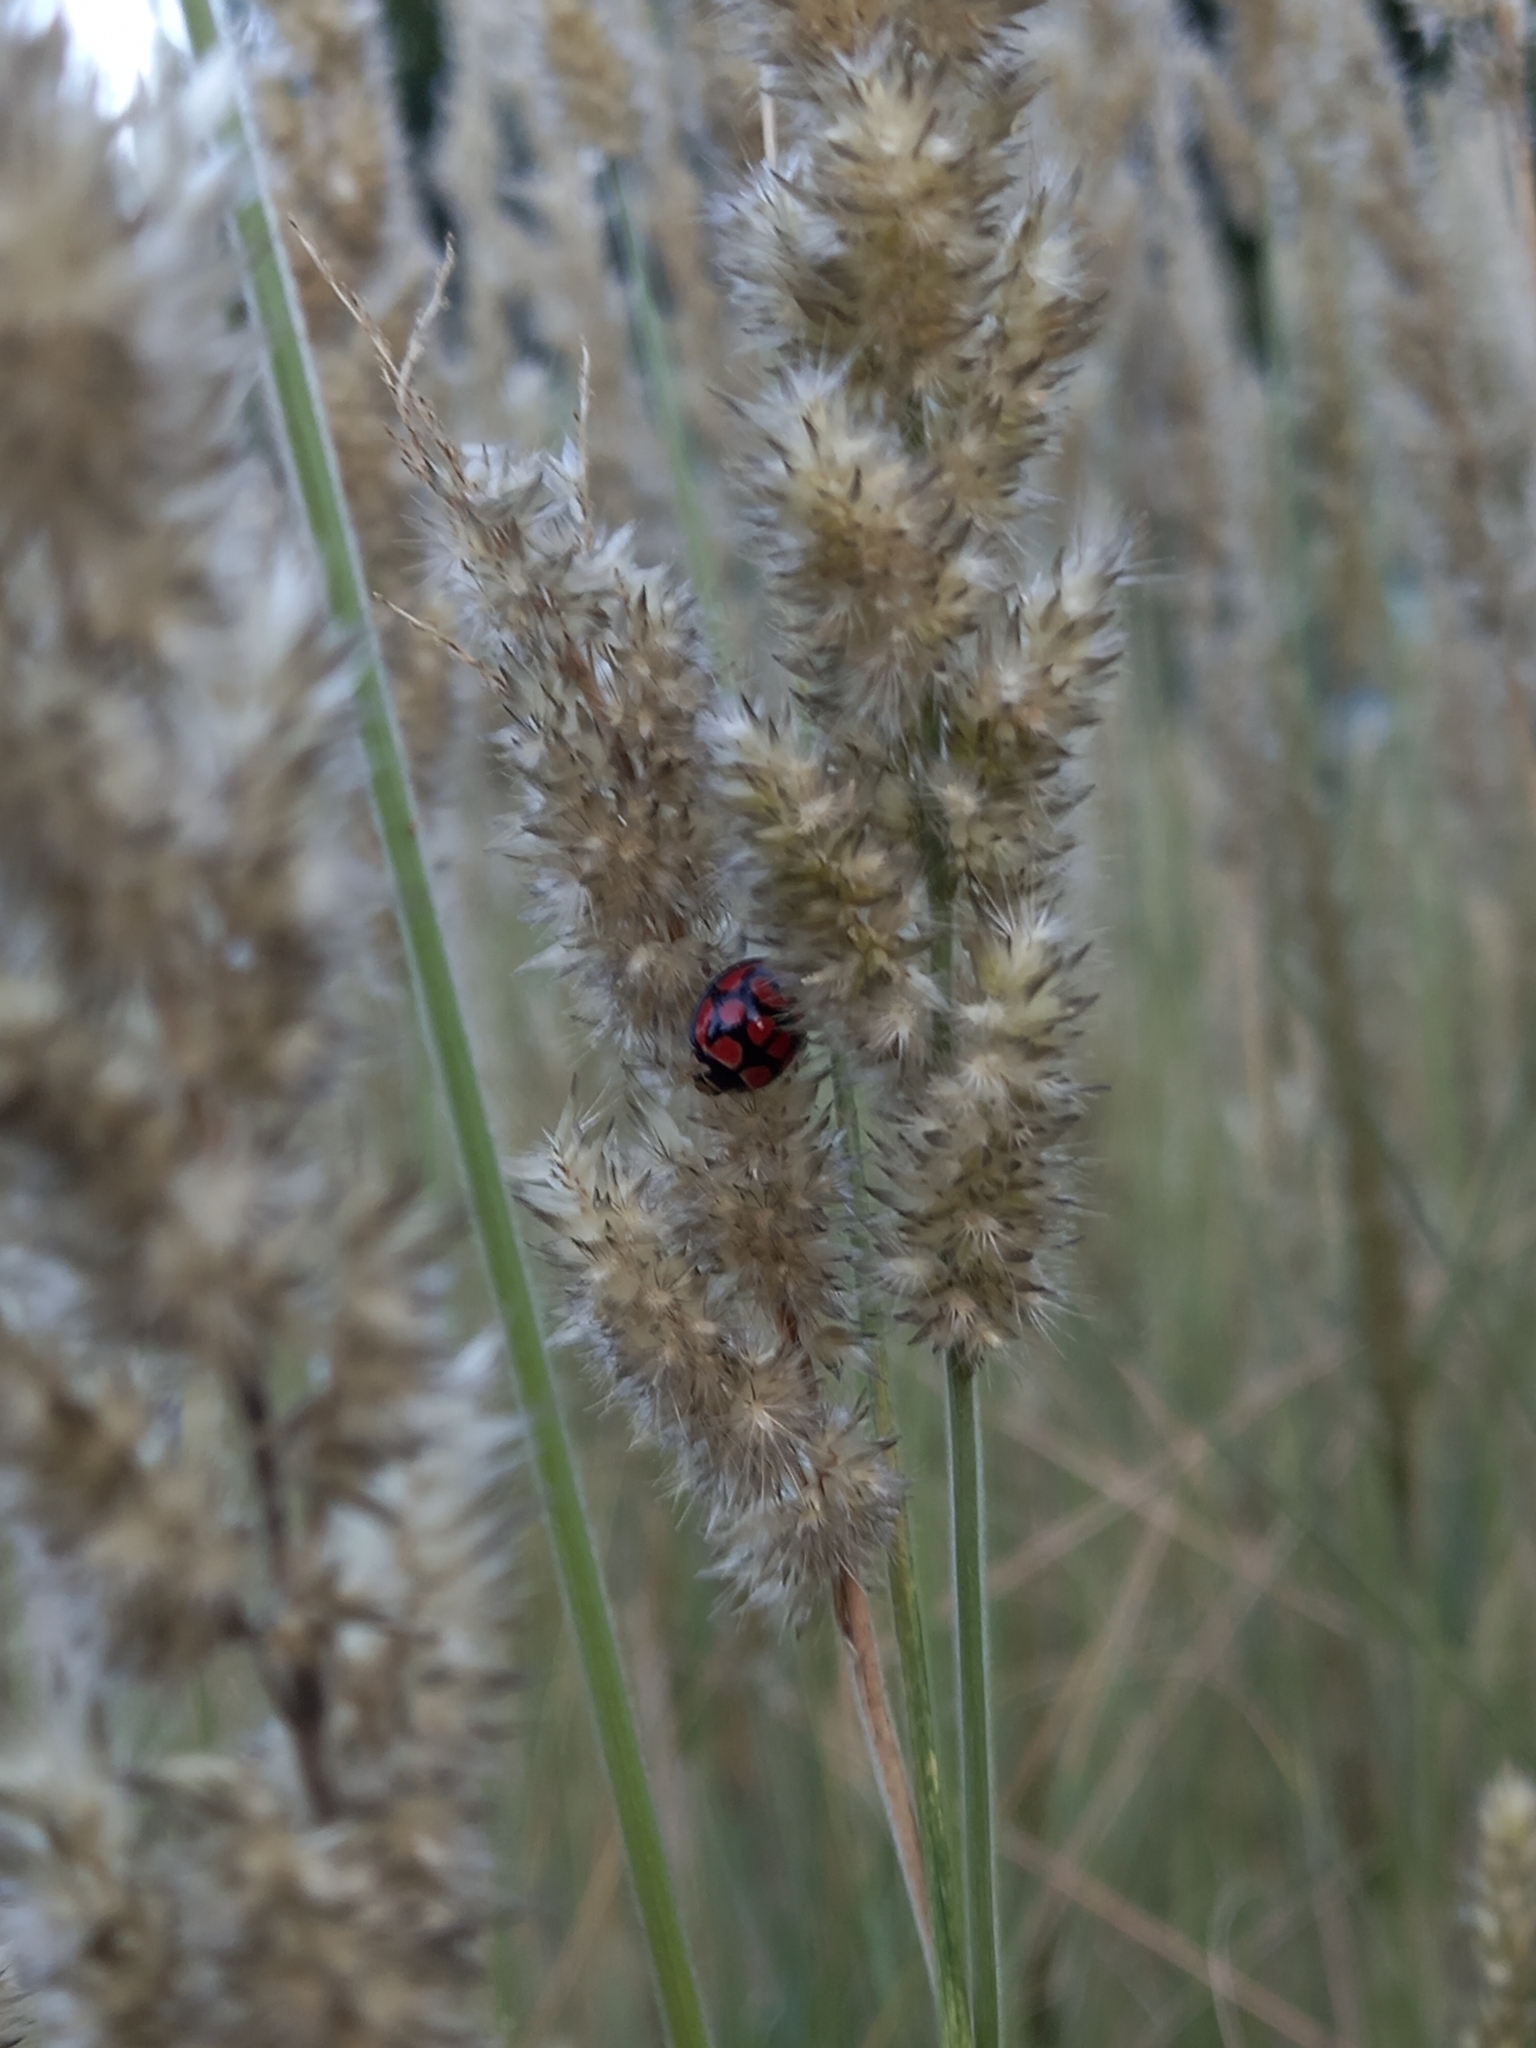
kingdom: Animalia
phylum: Arthropoda
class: Insecta
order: Coleoptera
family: Coccinellidae
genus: Cheilomenes
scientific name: Cheilomenes lunata
